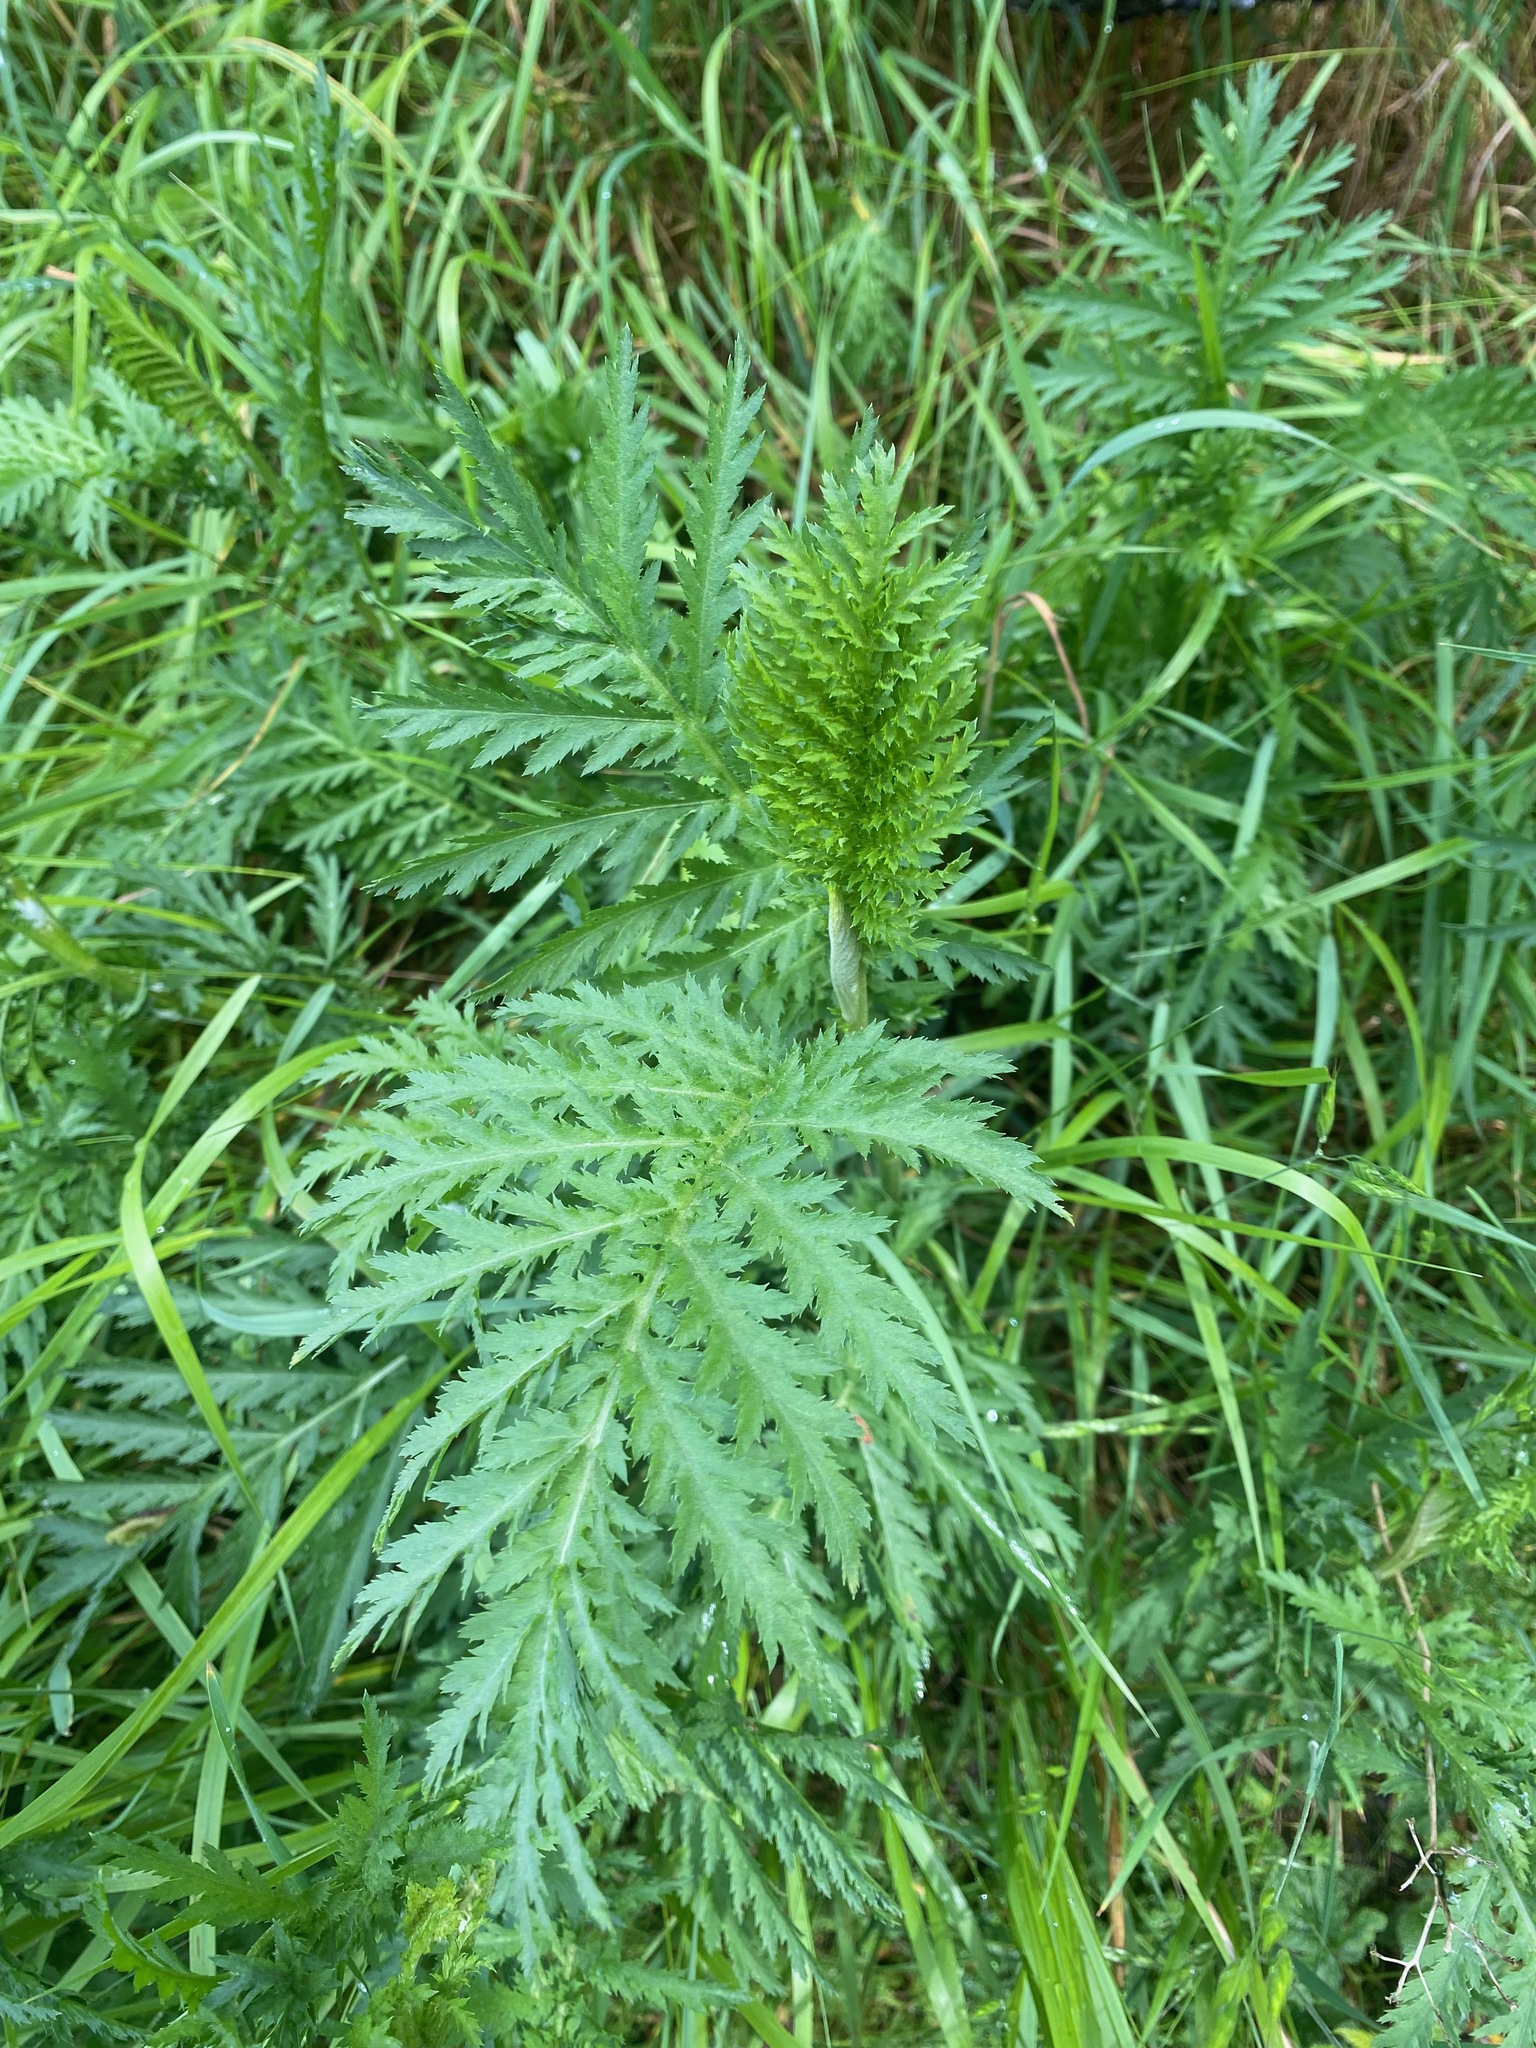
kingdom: Plantae
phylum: Tracheophyta
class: Magnoliopsida
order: Asterales
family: Asteraceae
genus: Tanacetum
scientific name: Tanacetum vulgare
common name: Common tansy
